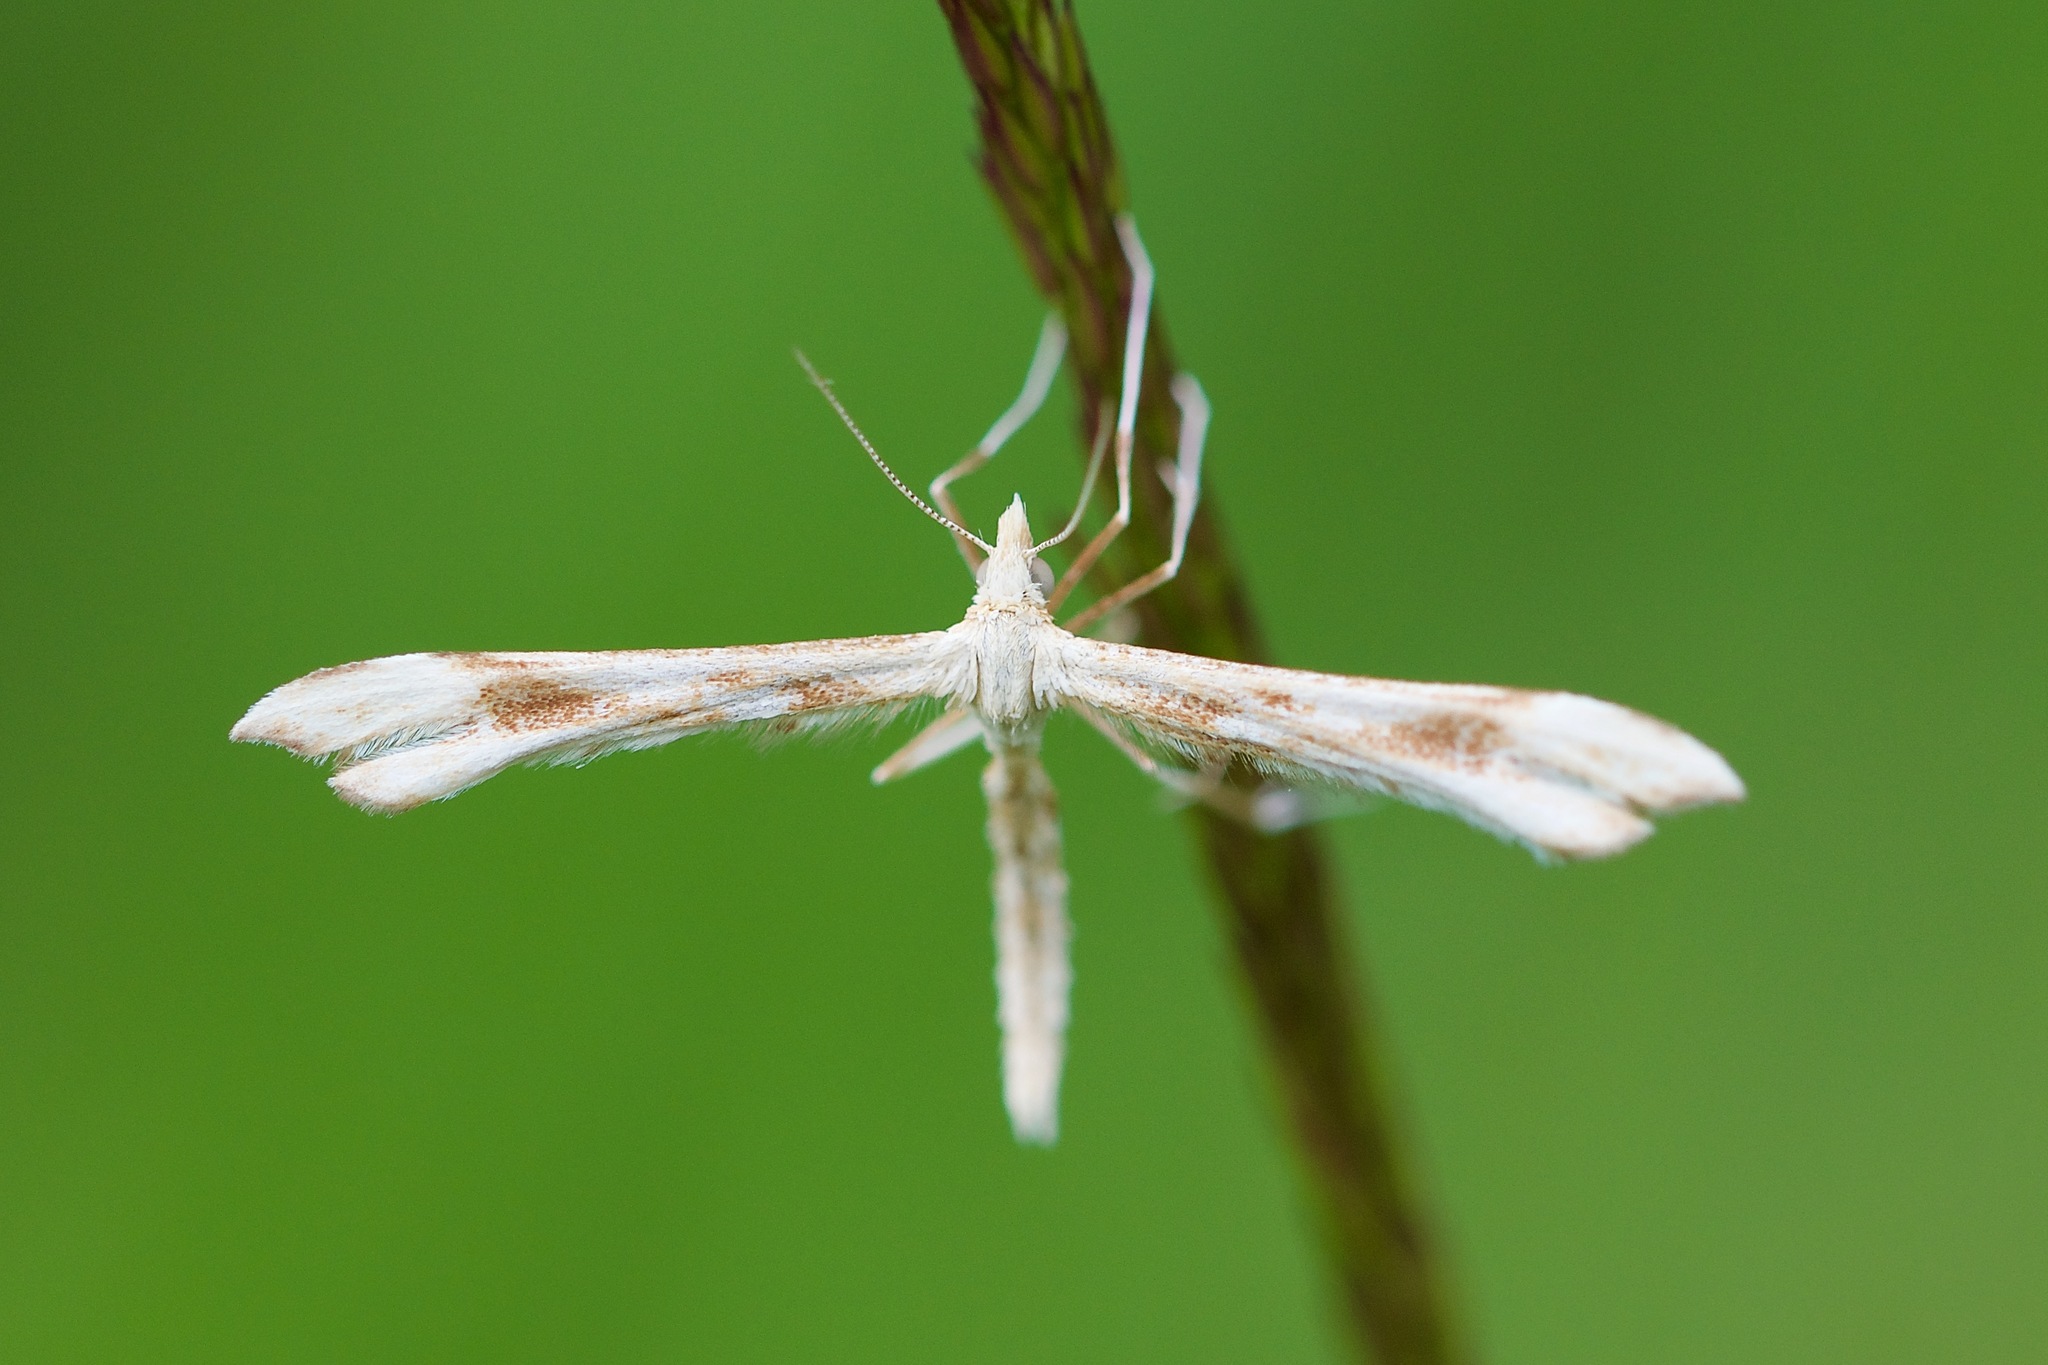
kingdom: Animalia
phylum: Arthropoda
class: Insecta
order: Lepidoptera
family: Pterophoridae
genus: Gillmeria
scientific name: Gillmeria pallidactyla
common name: Yarrow plume
